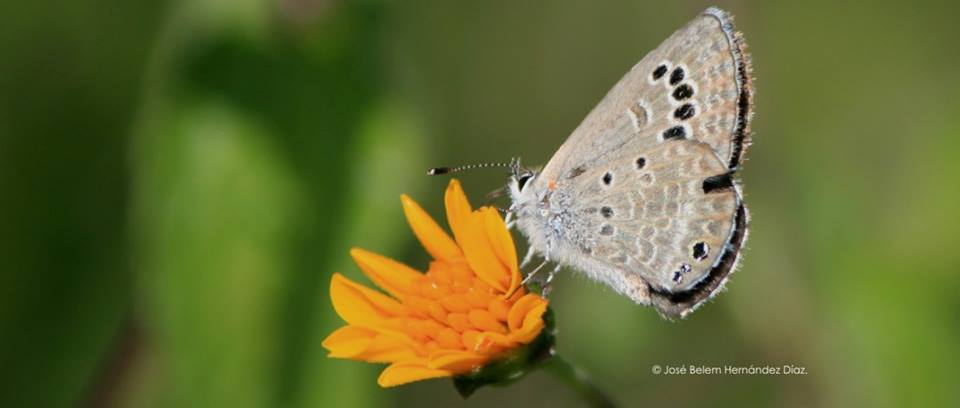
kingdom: Animalia
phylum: Arthropoda
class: Insecta
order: Lepidoptera
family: Lycaenidae
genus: Echinargus
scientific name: Echinargus isola
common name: Reakirt's blue
